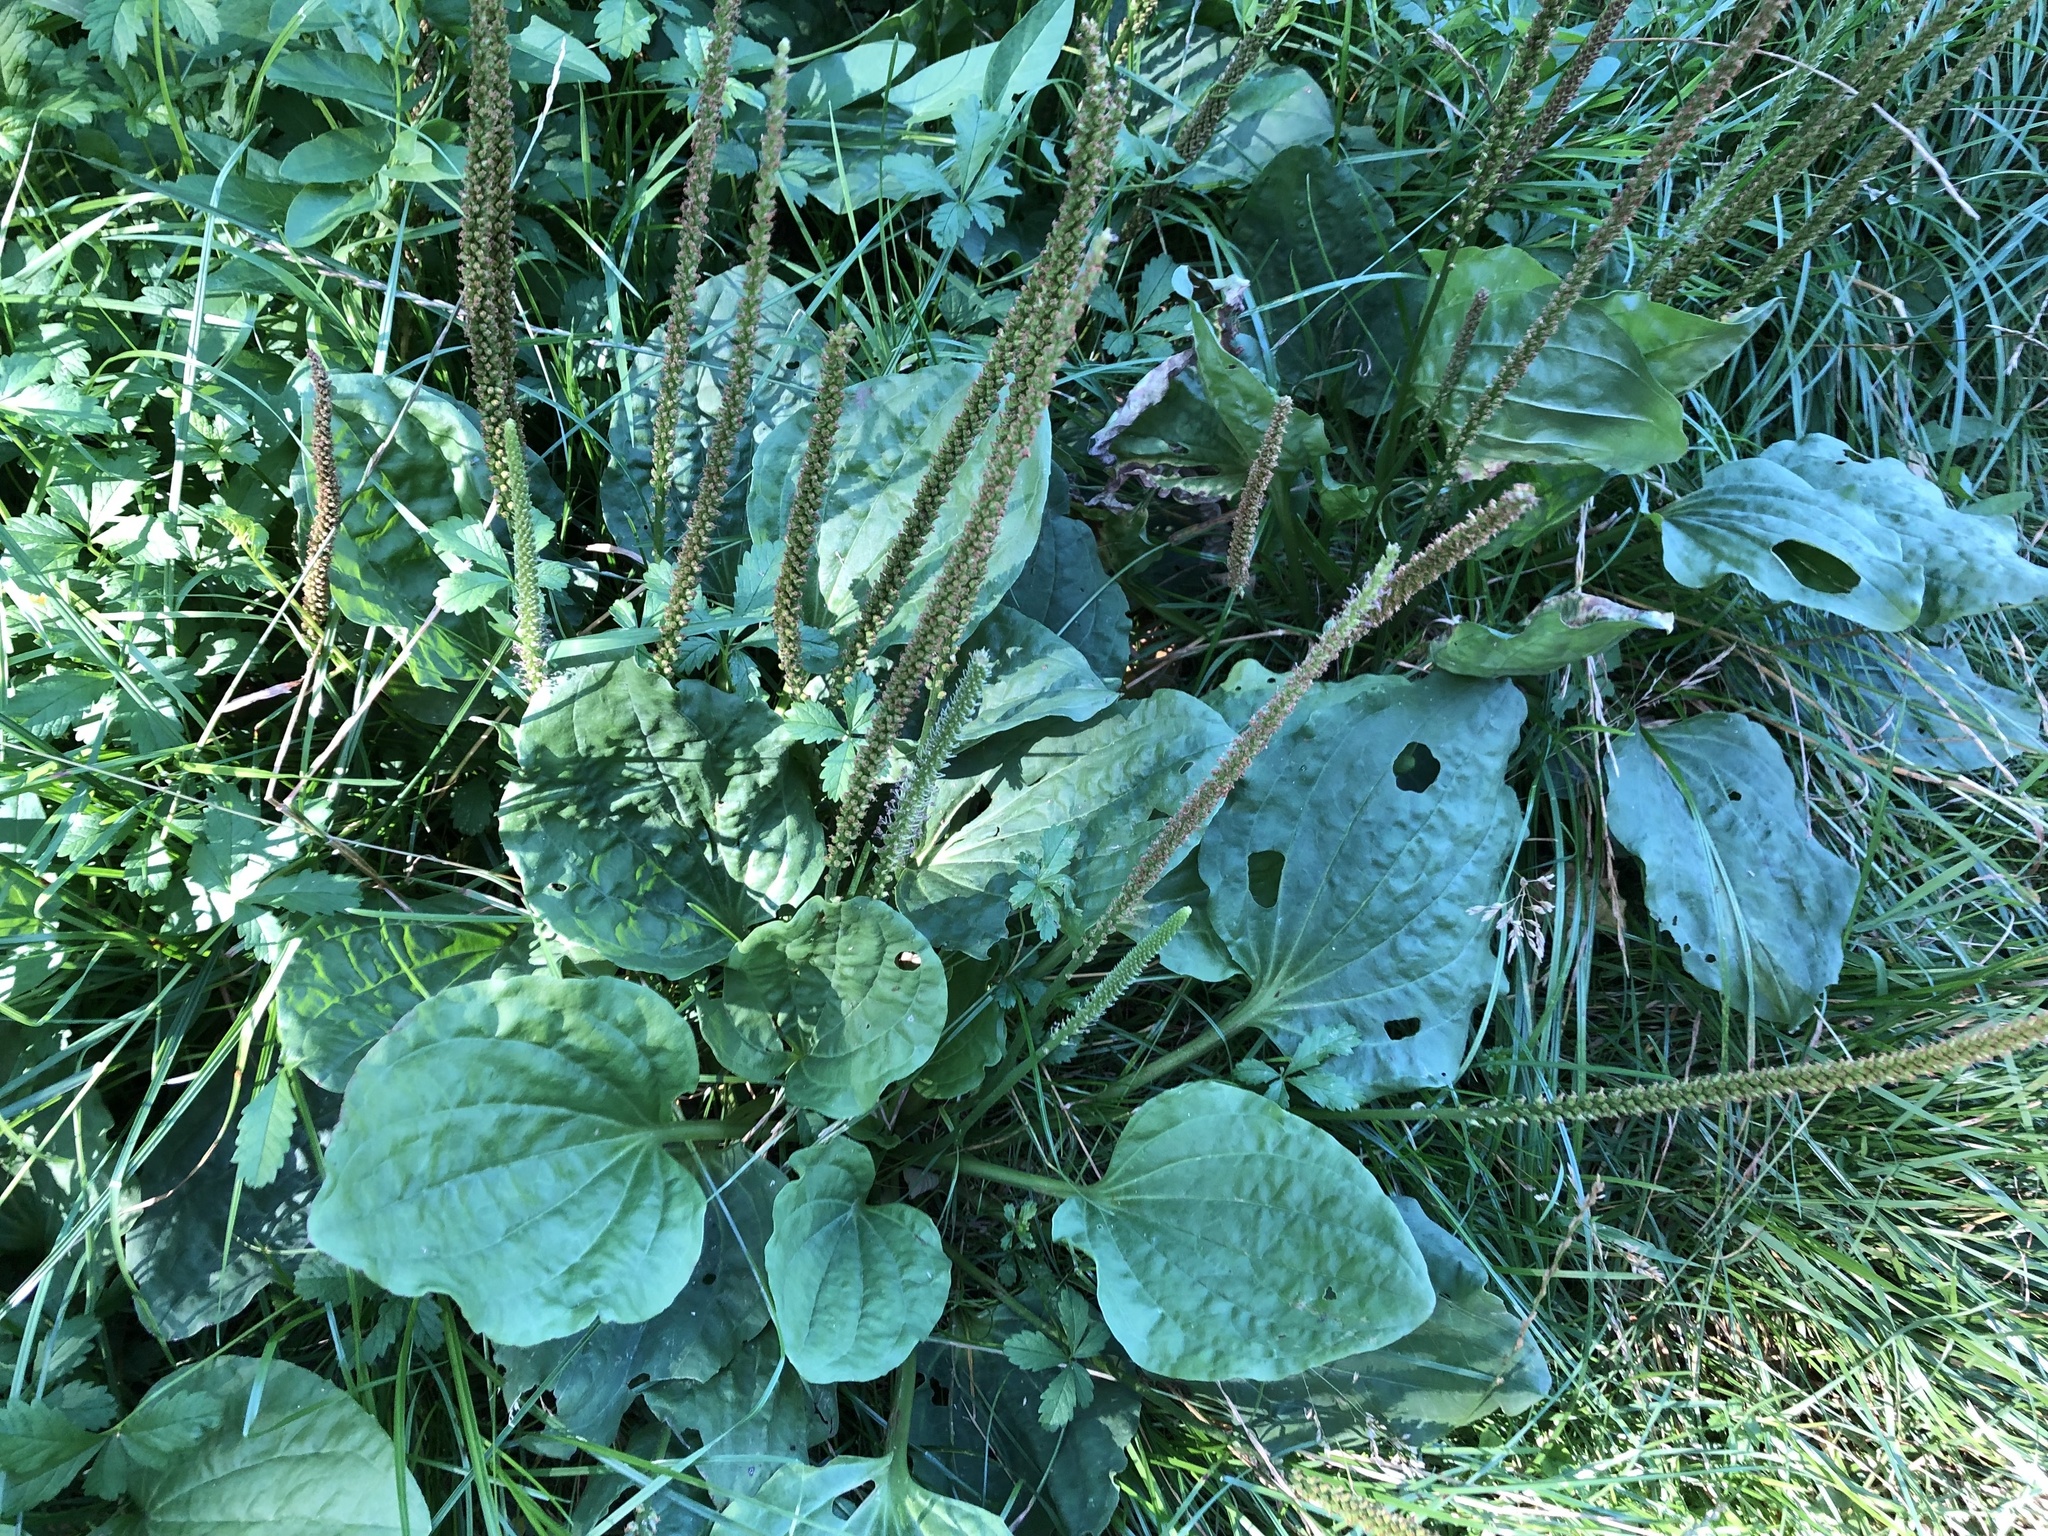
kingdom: Plantae
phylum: Tracheophyta
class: Magnoliopsida
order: Lamiales
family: Plantaginaceae
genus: Plantago
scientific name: Plantago major
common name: Common plantain
